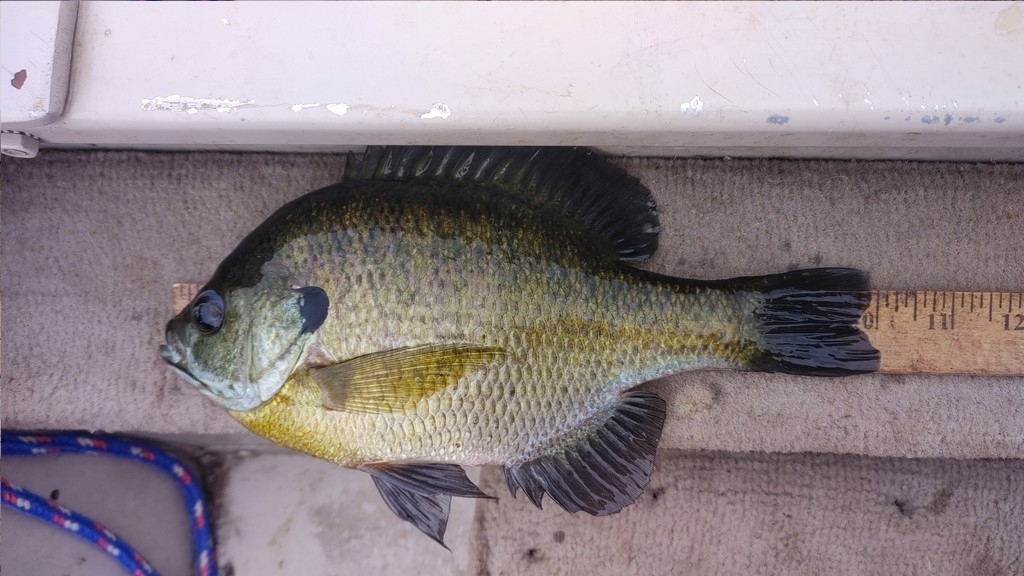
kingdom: Animalia
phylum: Chordata
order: Perciformes
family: Centrarchidae
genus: Lepomis
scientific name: Lepomis macrochirus
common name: Bluegill
